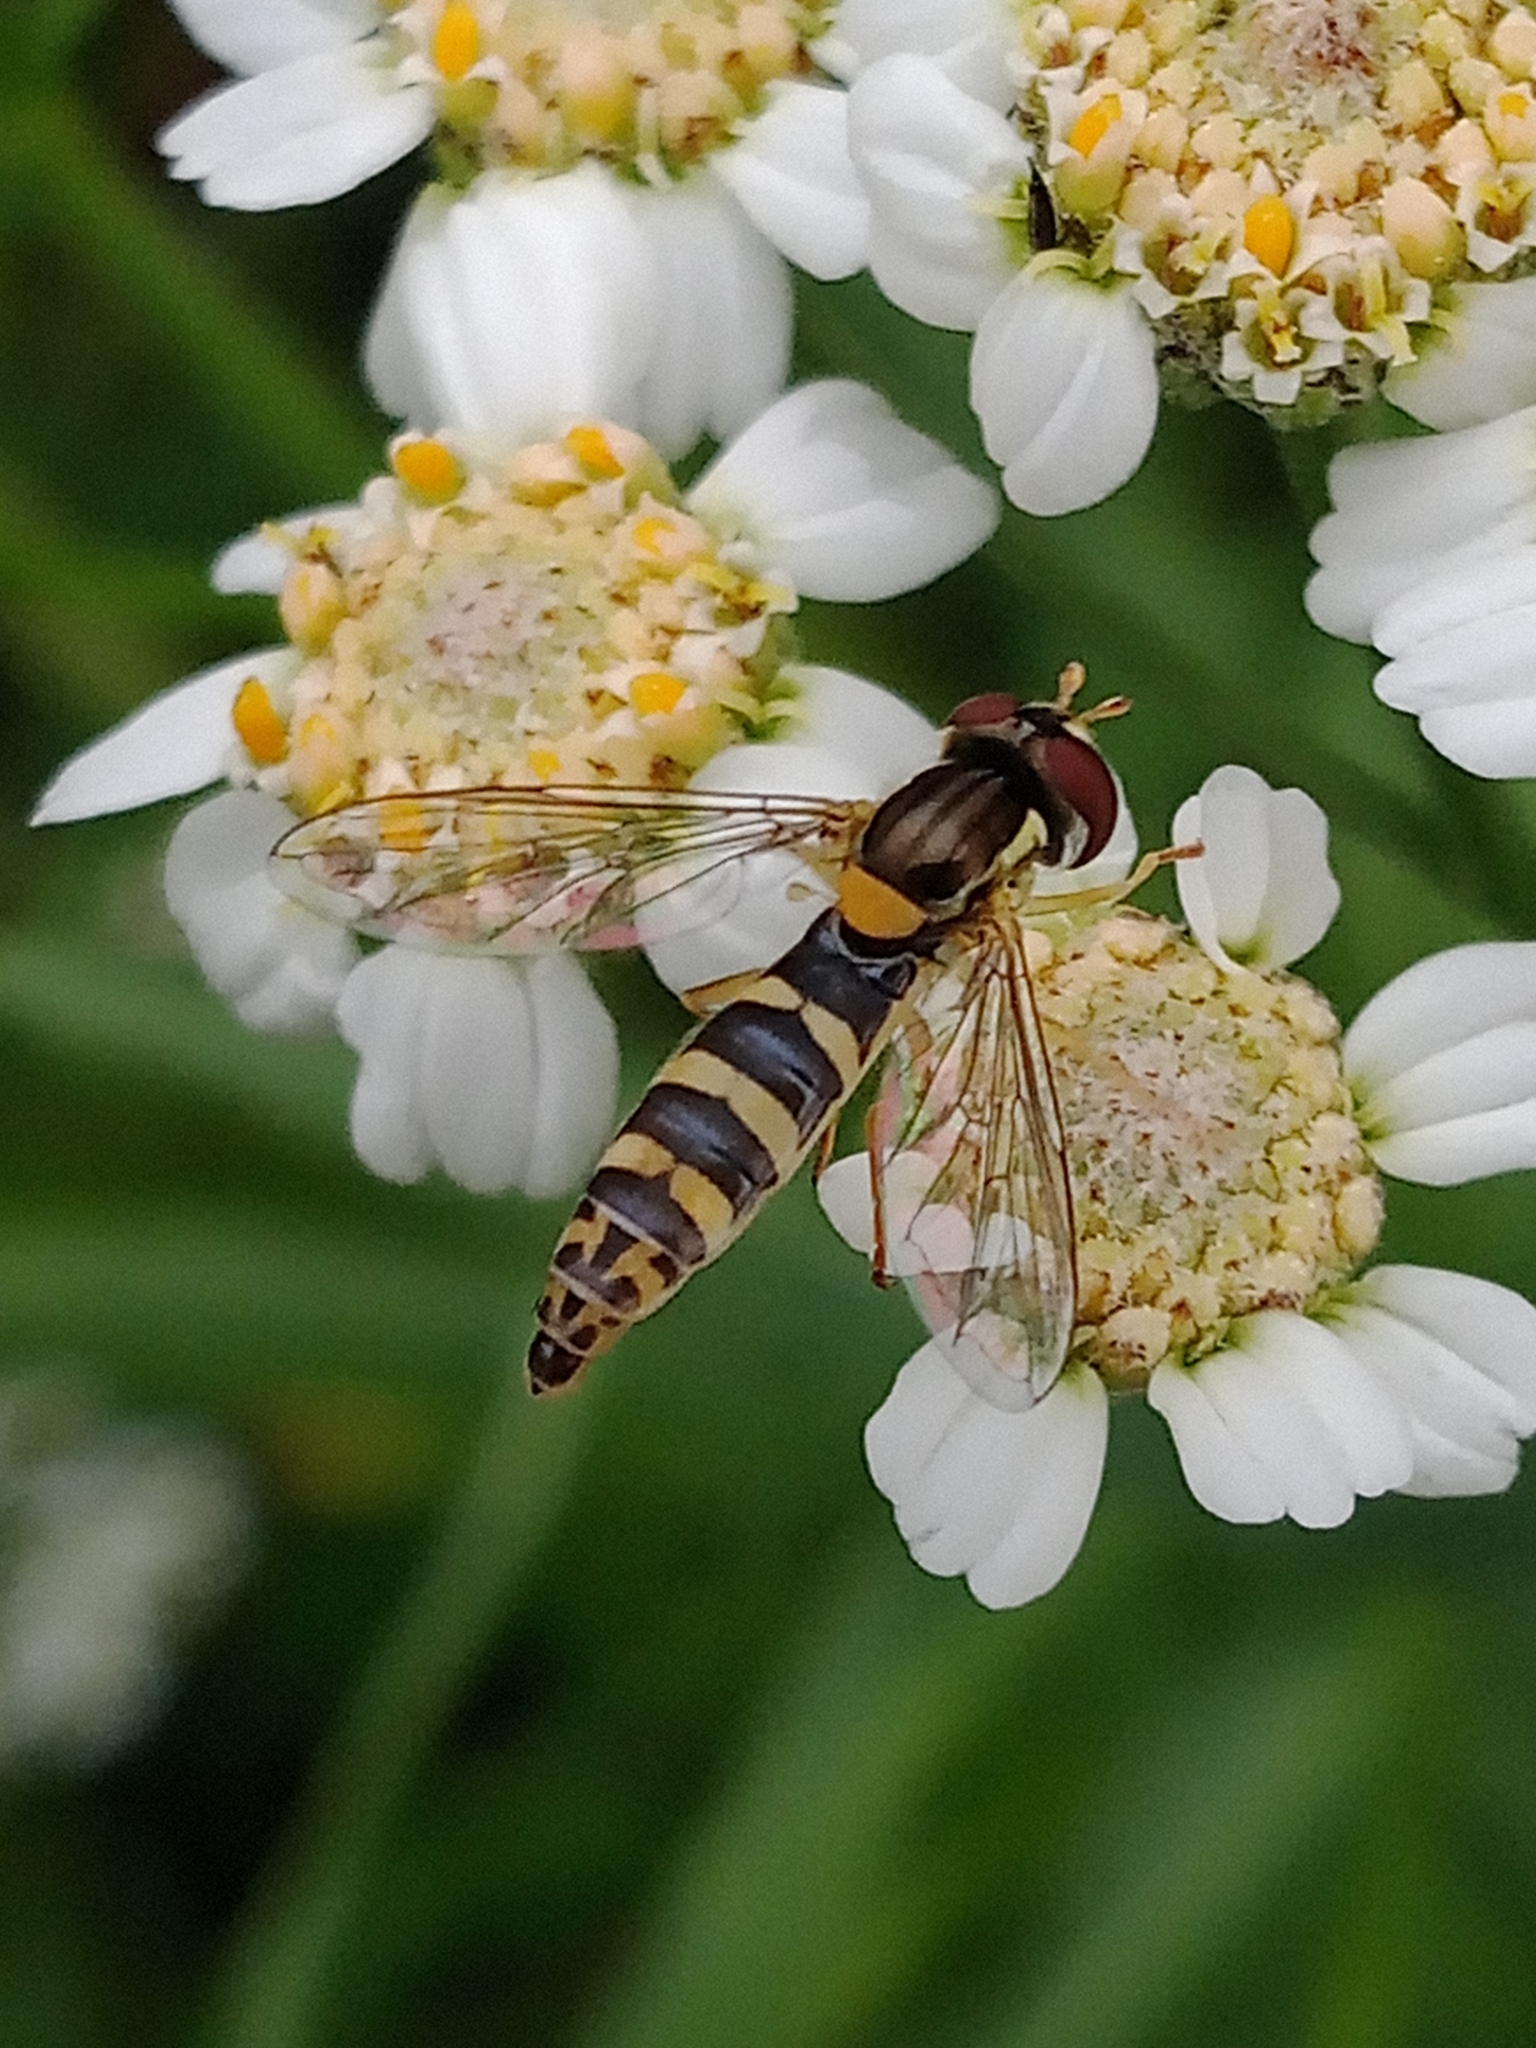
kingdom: Animalia
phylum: Arthropoda
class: Insecta
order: Diptera
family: Syrphidae
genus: Sphaerophoria
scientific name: Sphaerophoria
